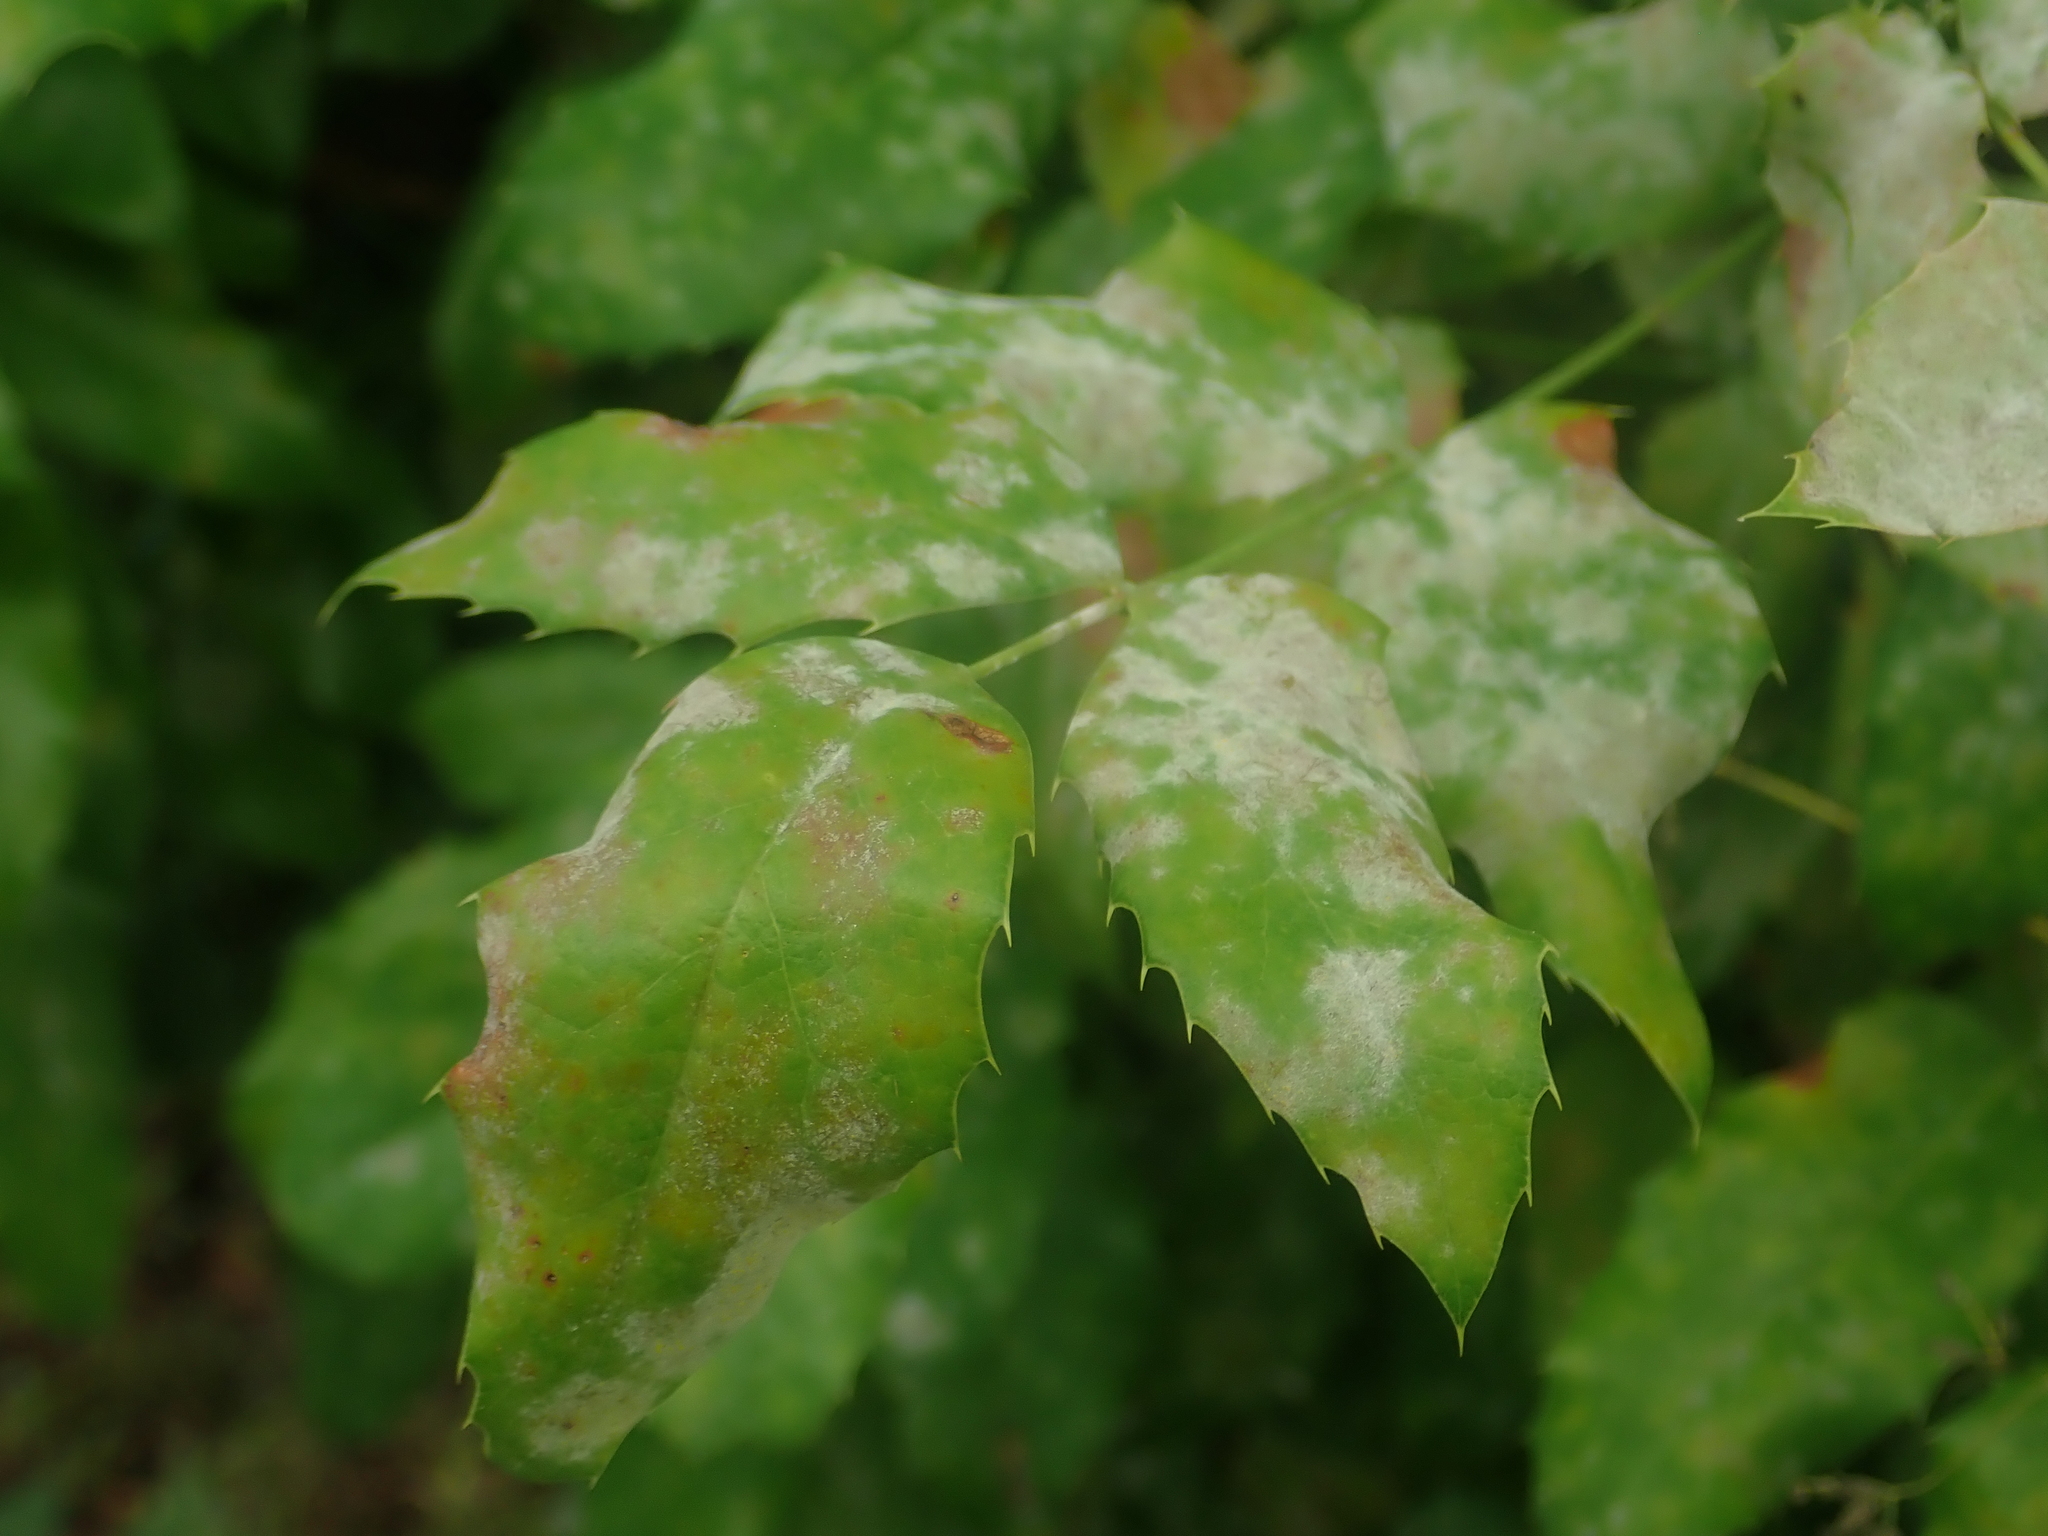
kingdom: Fungi
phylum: Ascomycota
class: Leotiomycetes
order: Helotiales
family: Erysiphaceae
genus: Erysiphe
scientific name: Erysiphe berberidis
